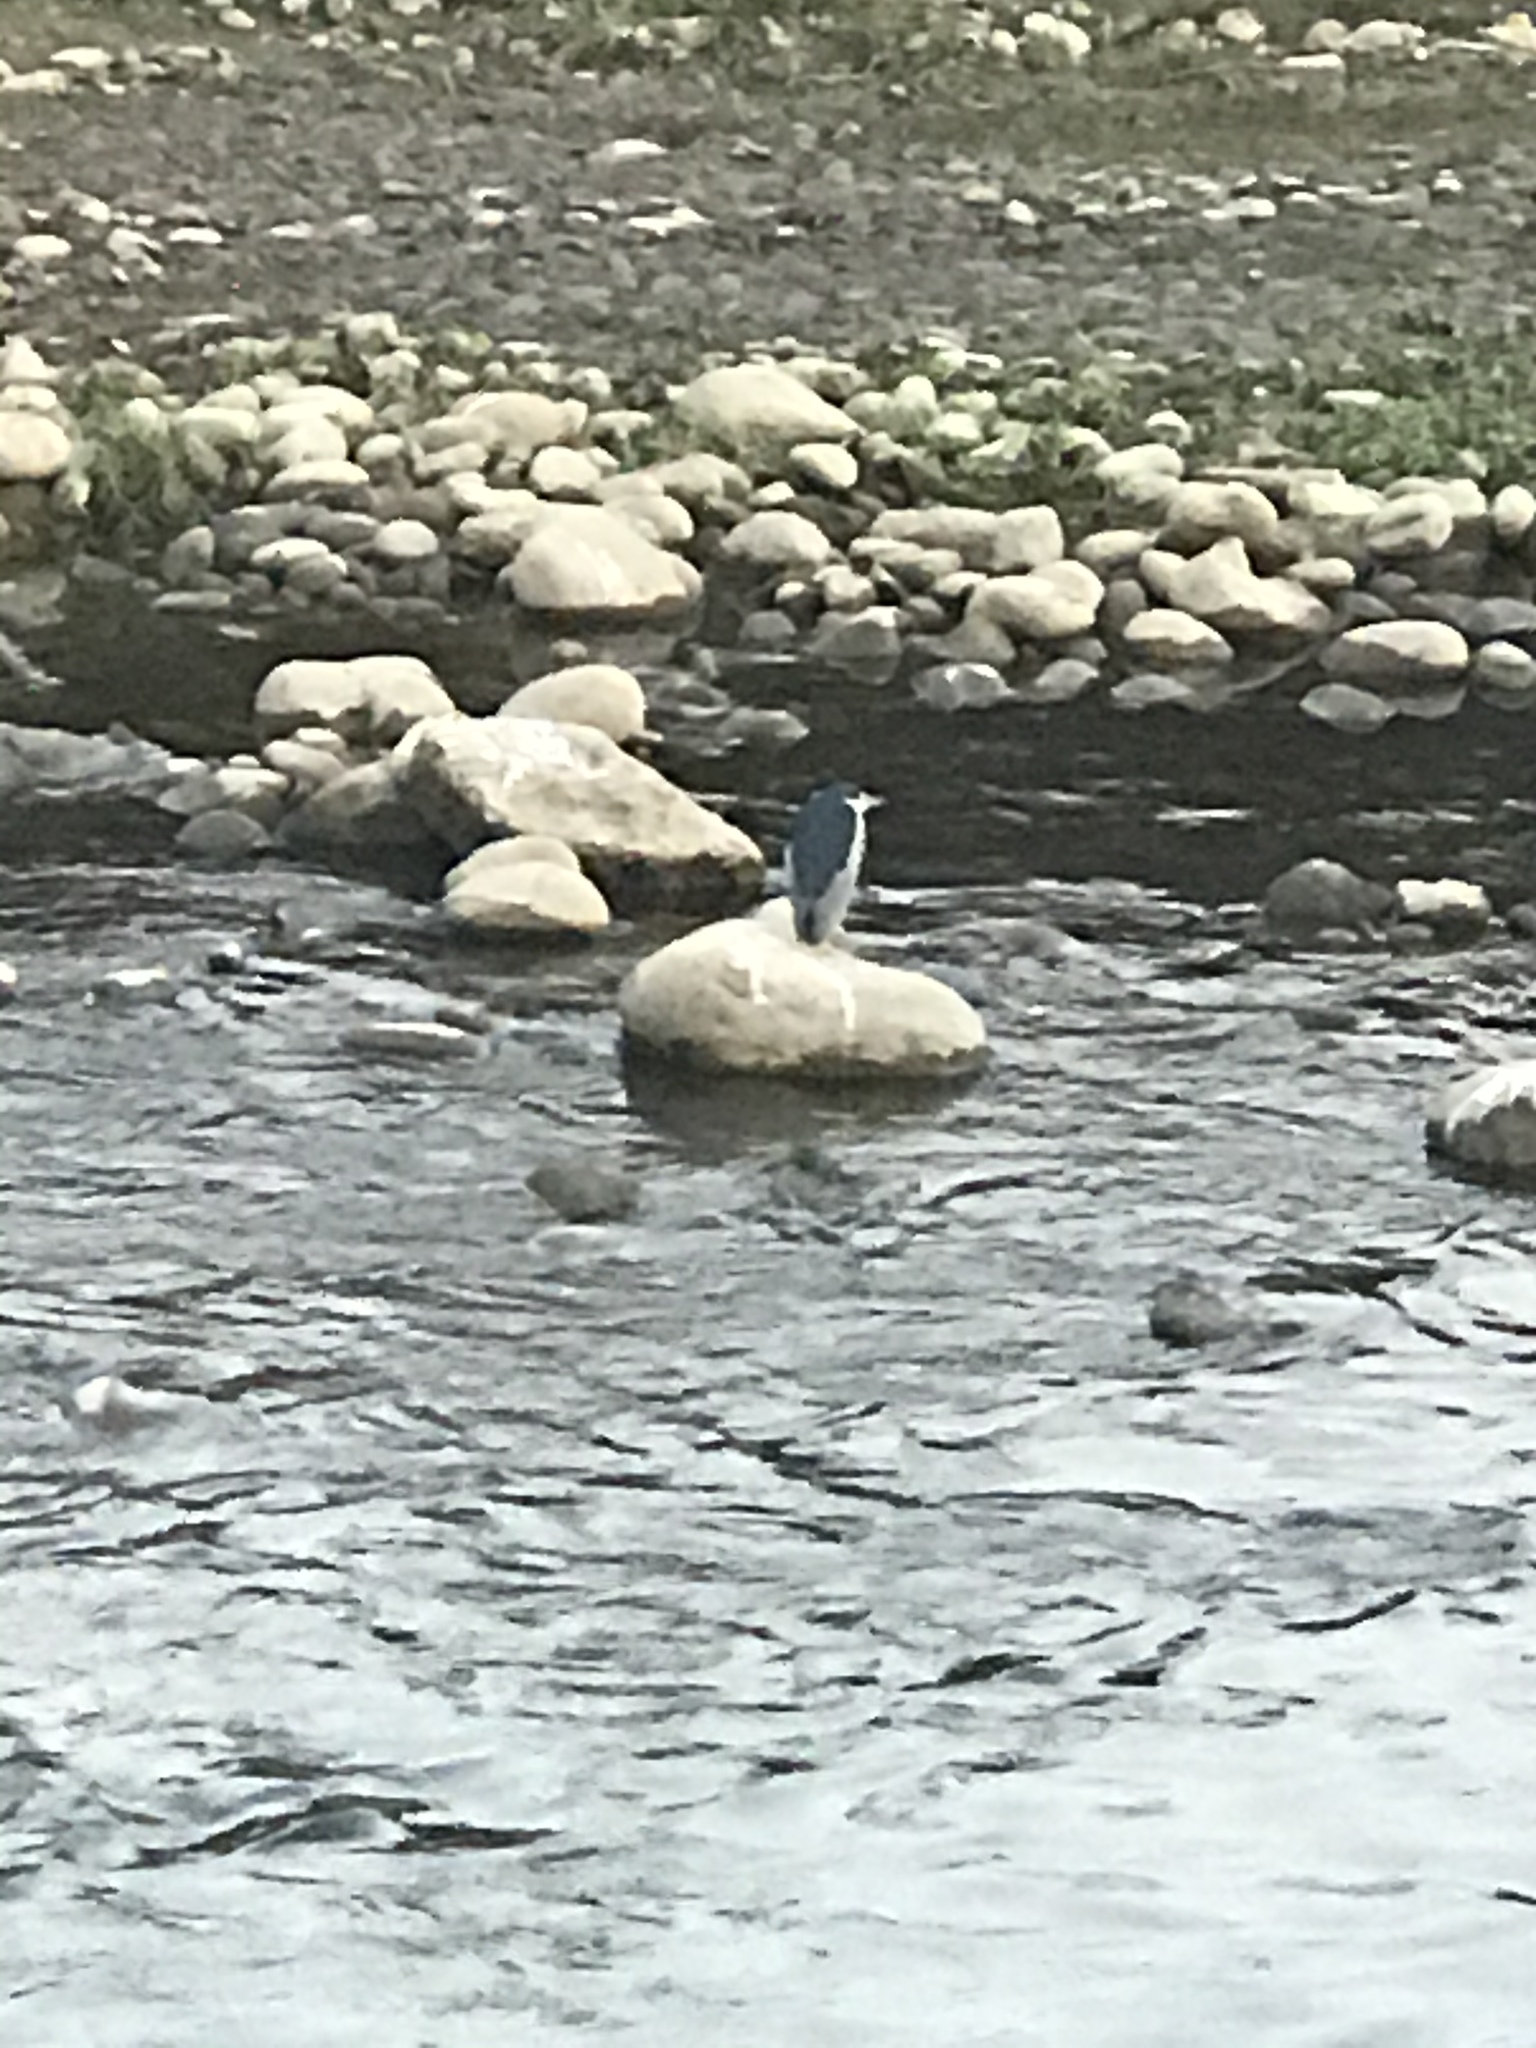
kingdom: Animalia
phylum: Chordata
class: Aves
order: Pelecaniformes
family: Ardeidae
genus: Nycticorax
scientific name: Nycticorax nycticorax
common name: Black-crowned night heron
